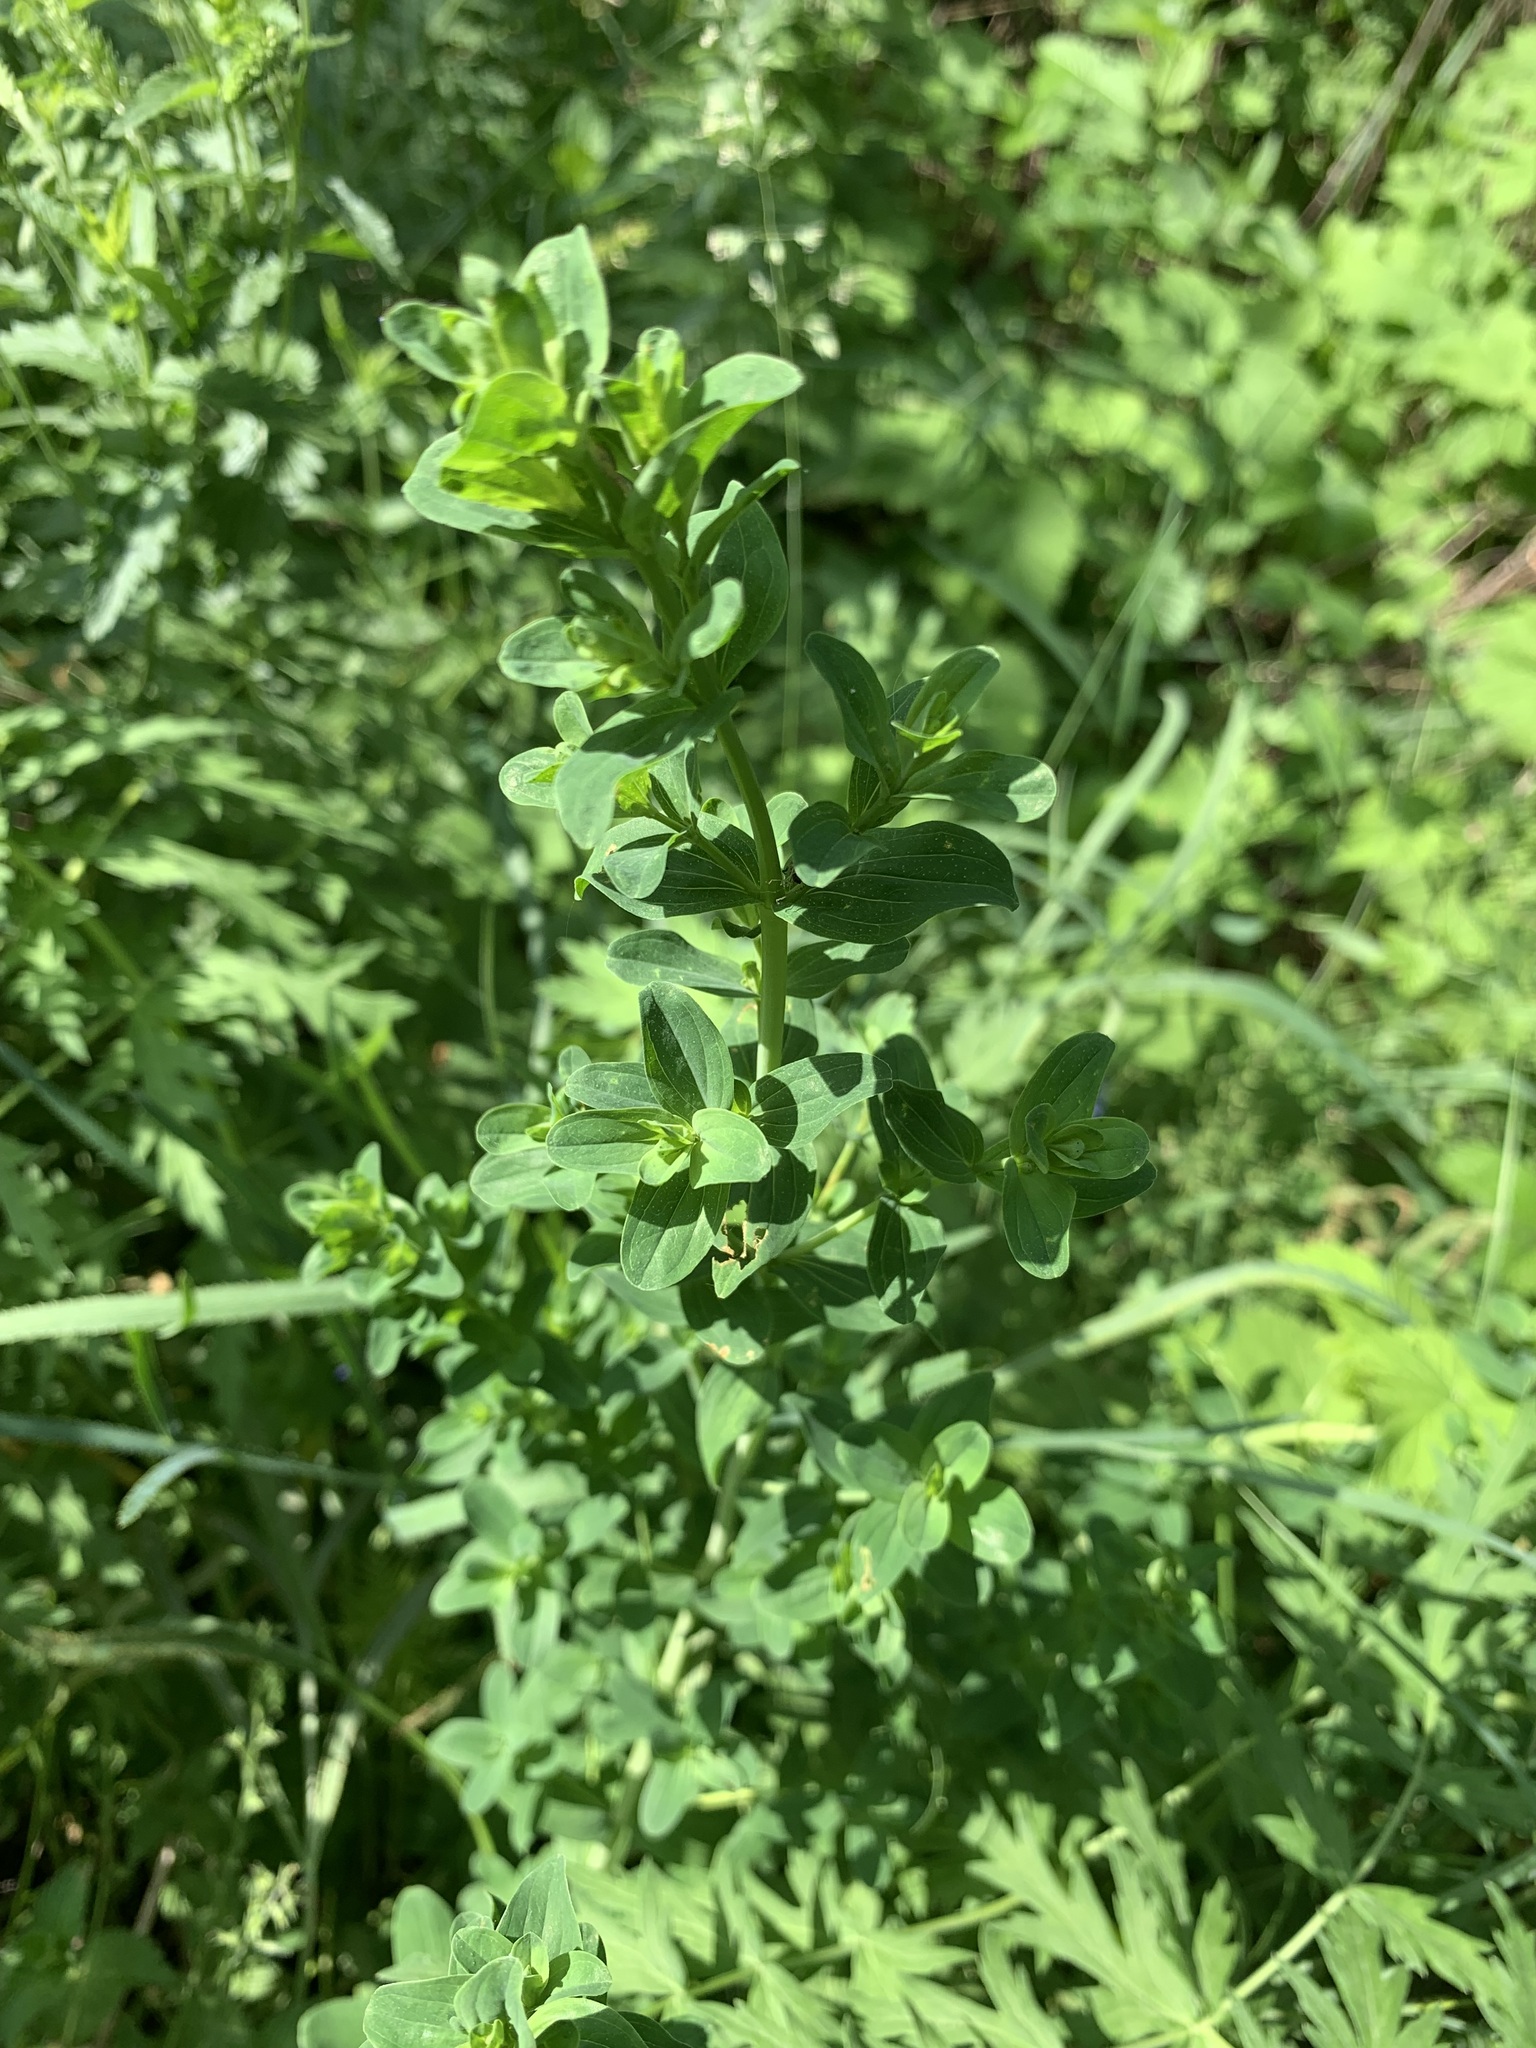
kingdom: Plantae
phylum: Tracheophyta
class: Magnoliopsida
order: Malpighiales
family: Hypericaceae
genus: Hypericum
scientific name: Hypericum perforatum
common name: Common st. johnswort
